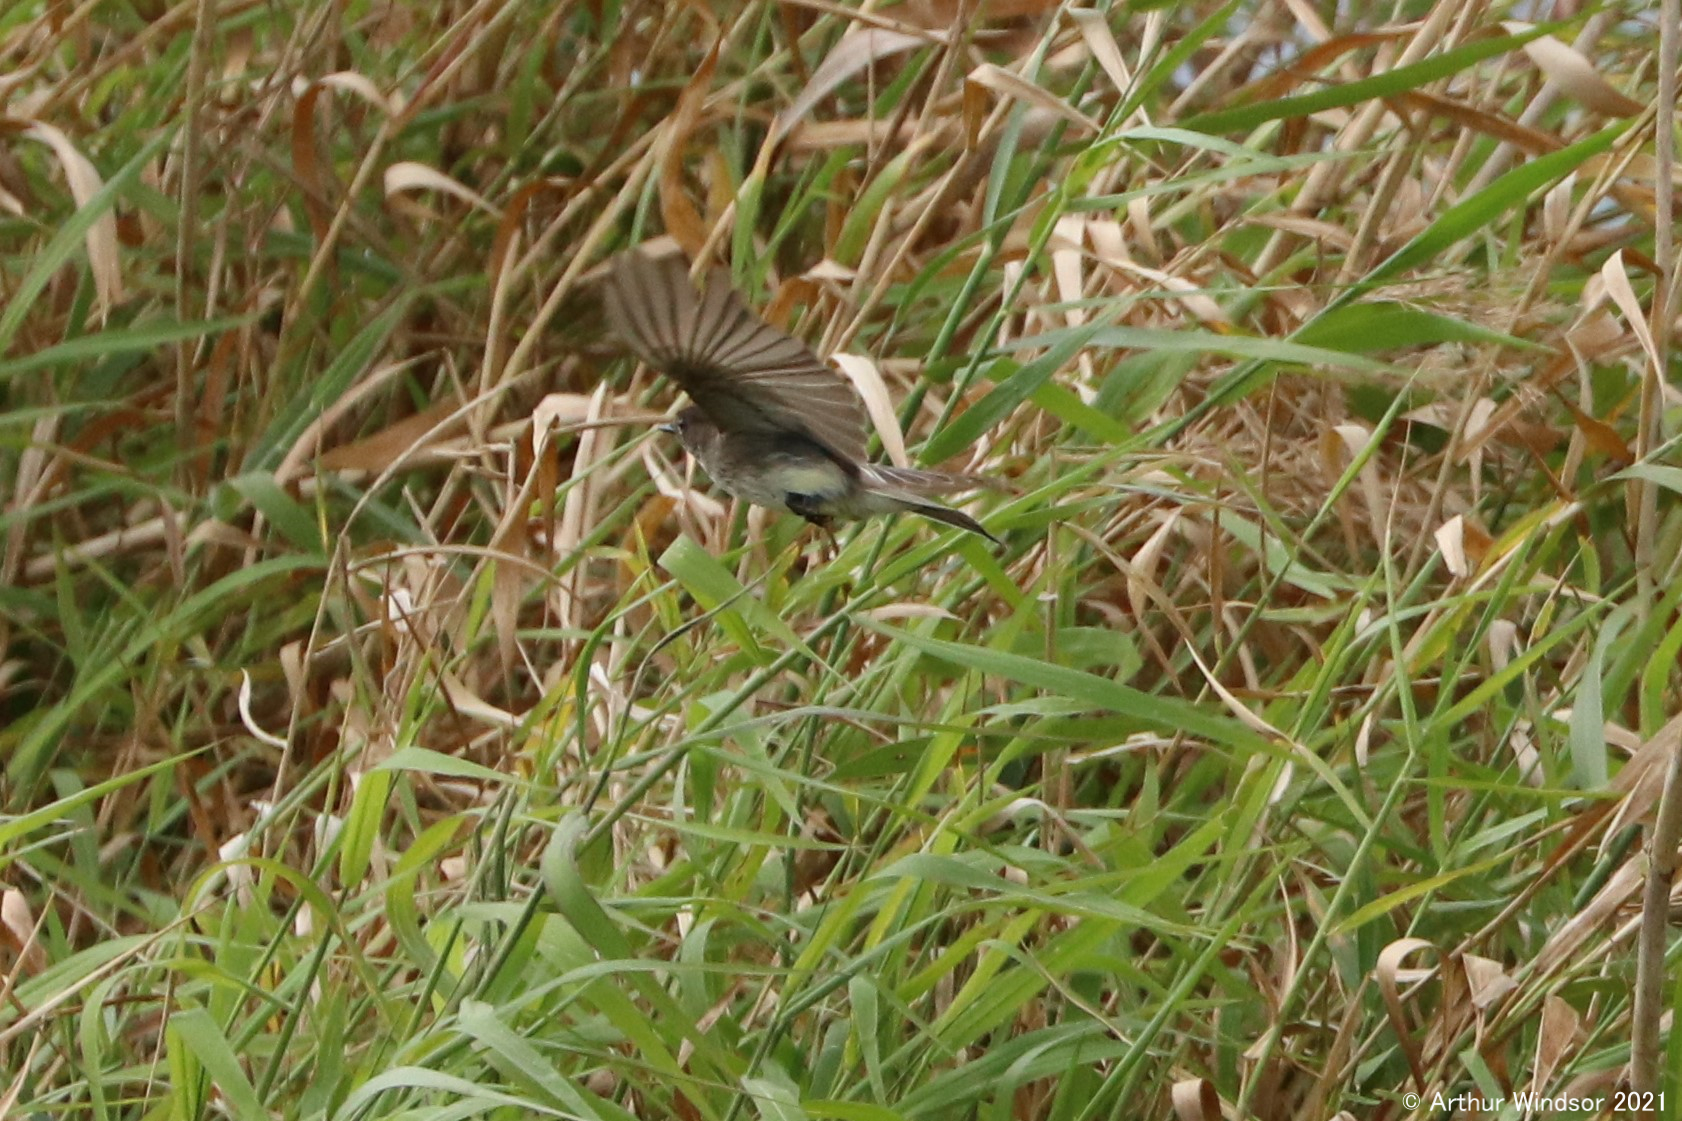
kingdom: Animalia
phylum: Chordata
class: Aves
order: Passeriformes
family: Tyrannidae
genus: Sayornis
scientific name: Sayornis phoebe
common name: Eastern phoebe
